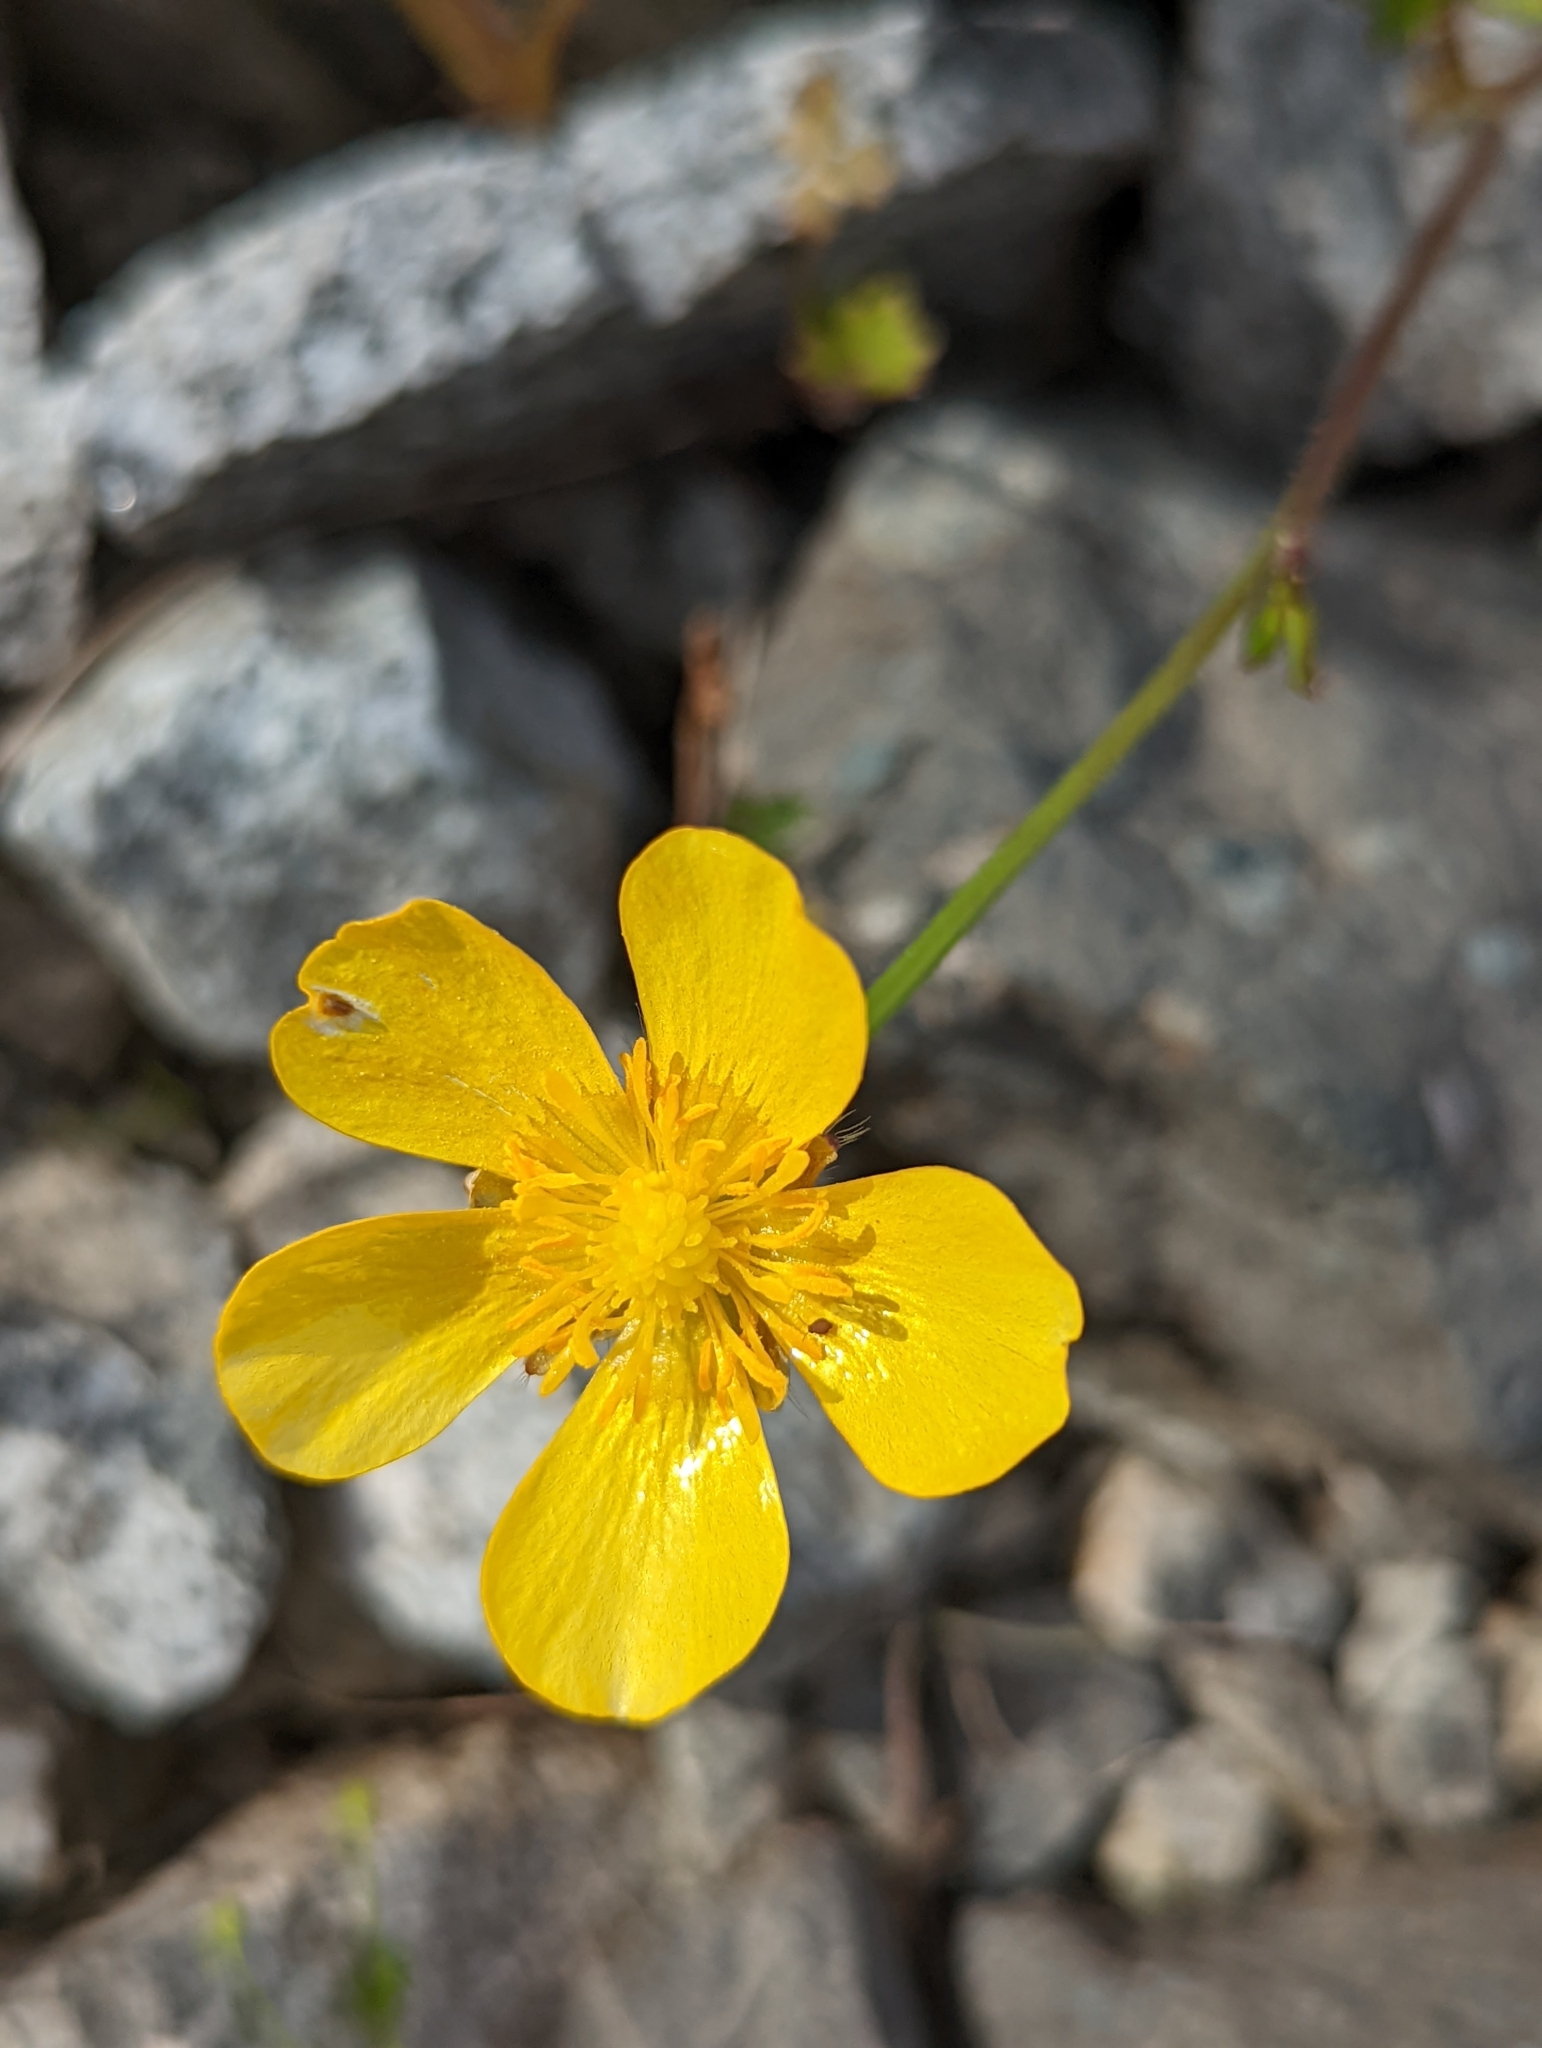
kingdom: Plantae
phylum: Tracheophyta
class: Magnoliopsida
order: Ranunculales
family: Ranunculaceae
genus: Ranunculus
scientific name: Ranunculus repens
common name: Creeping buttercup
